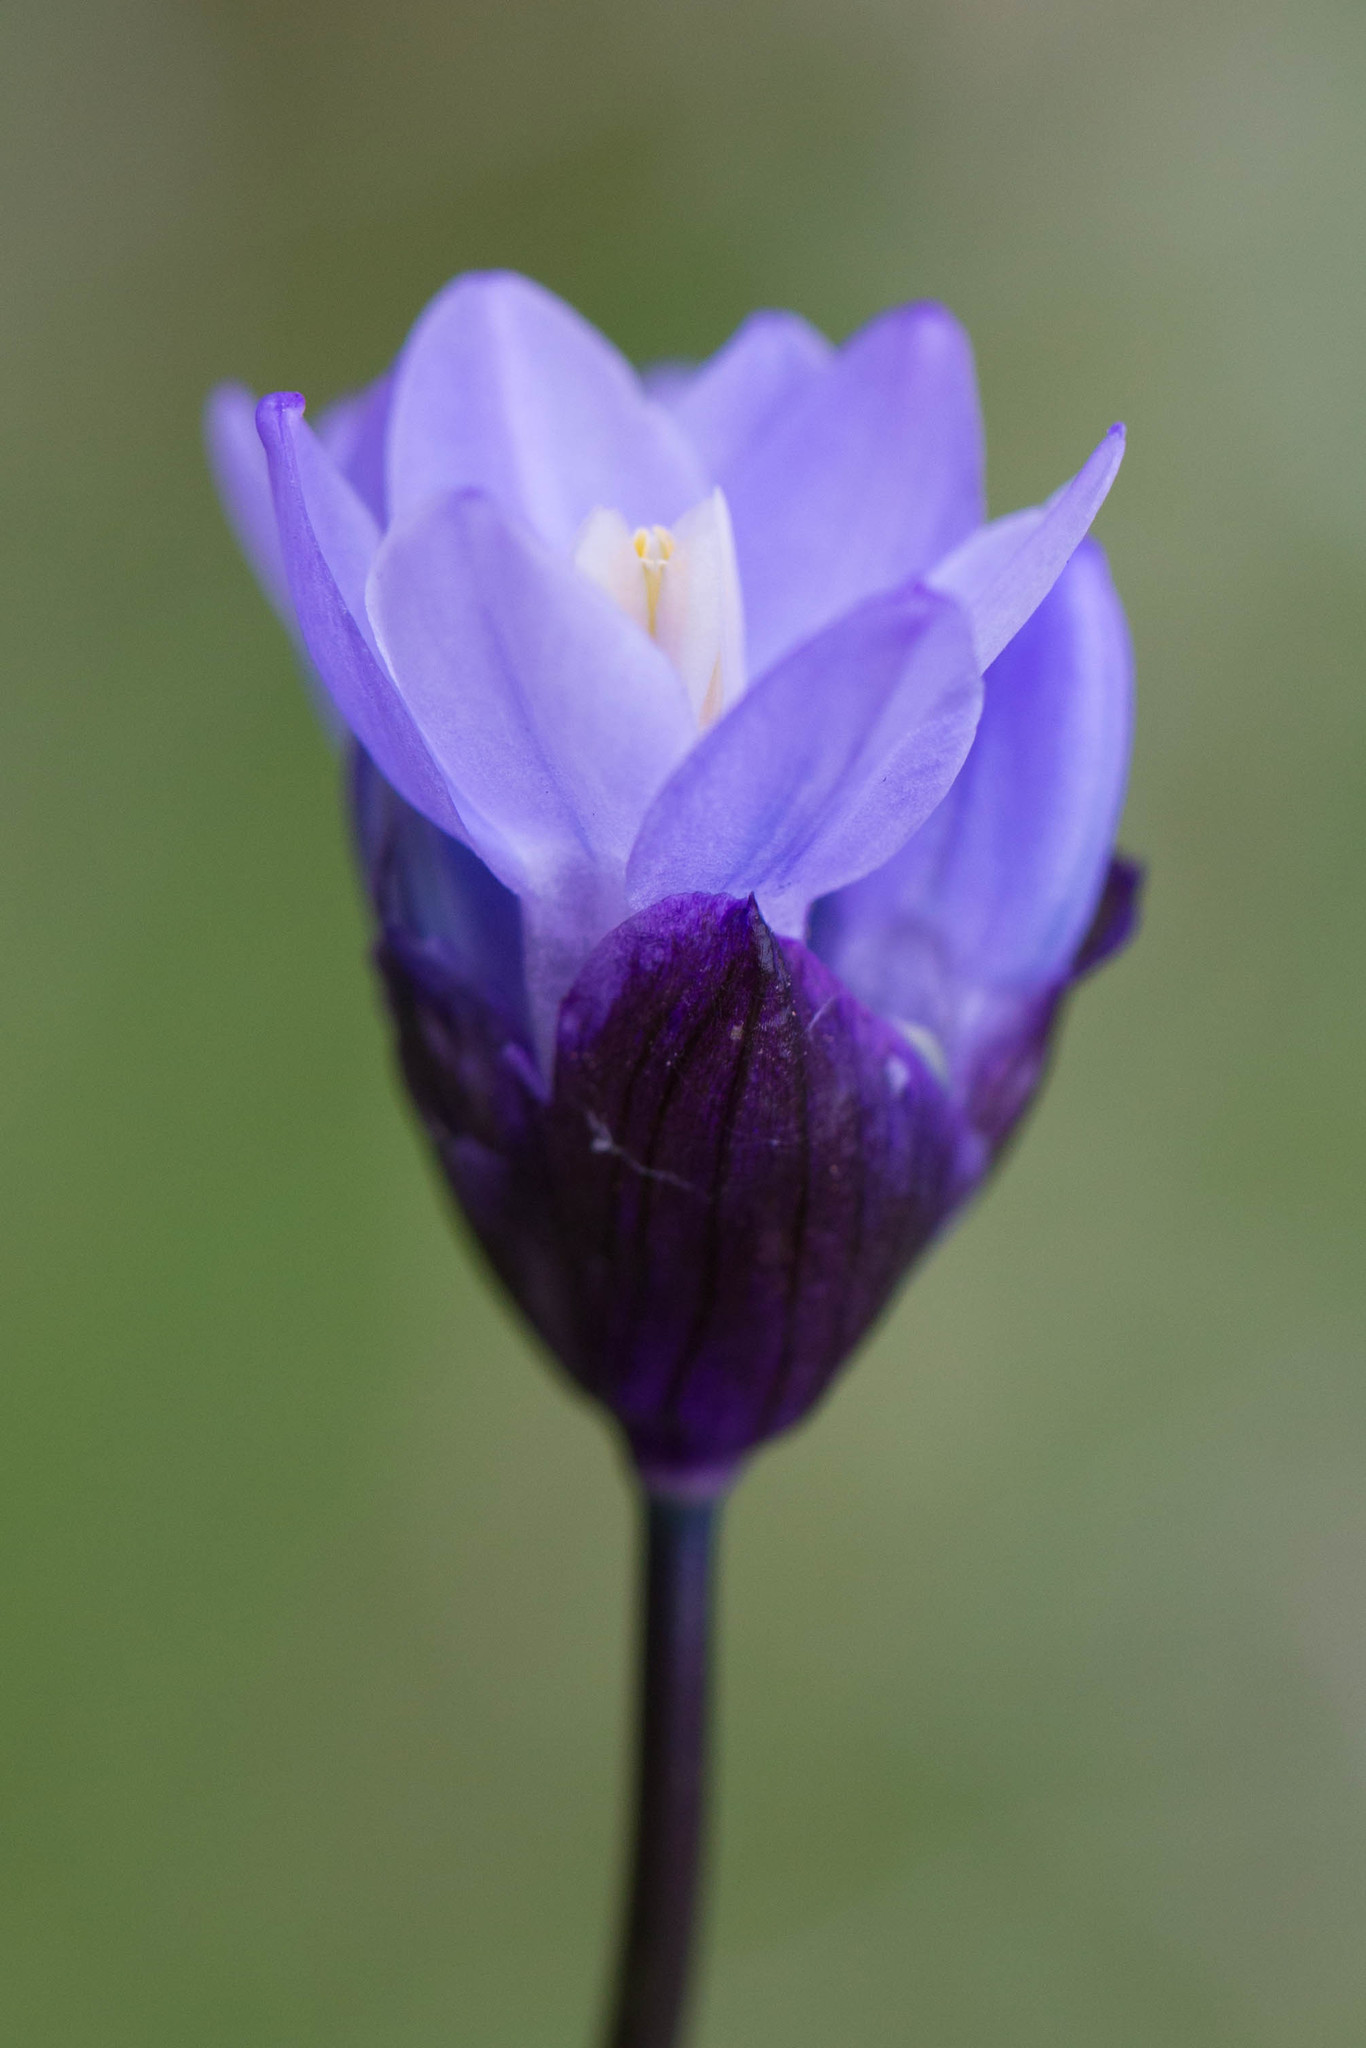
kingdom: Plantae
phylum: Tracheophyta
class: Liliopsida
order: Asparagales
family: Asparagaceae
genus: Dipterostemon
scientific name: Dipterostemon capitatus
